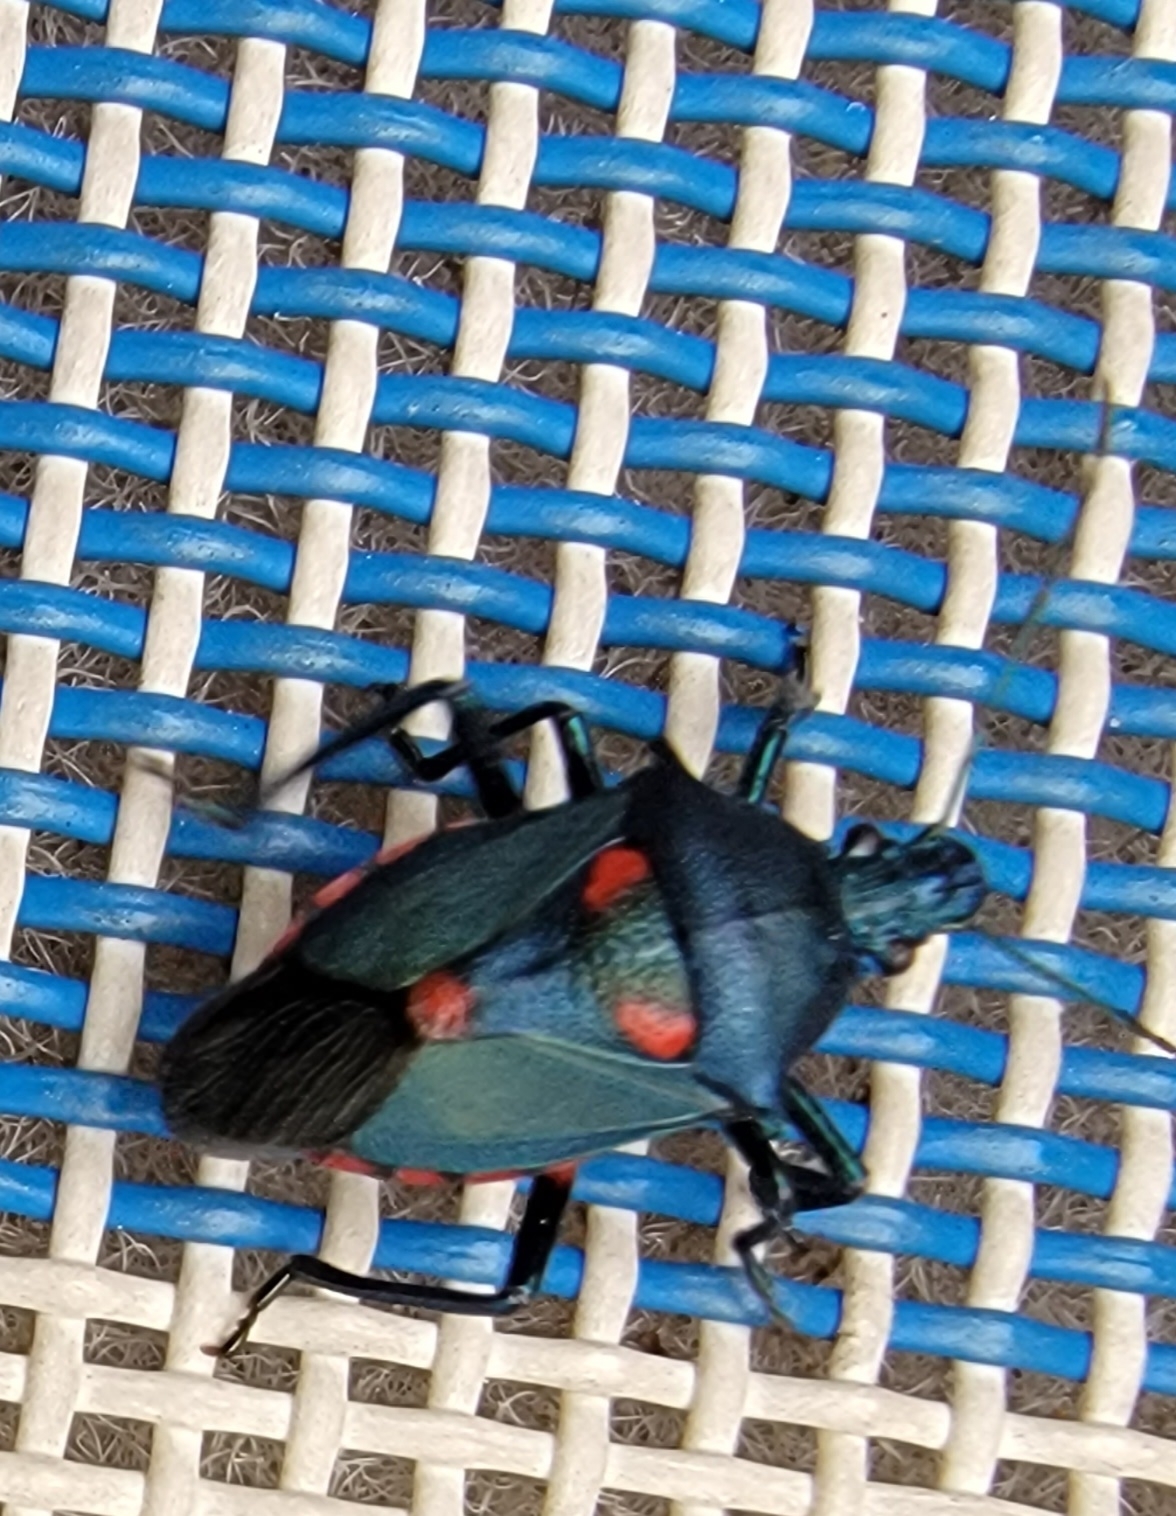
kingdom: Animalia
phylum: Arthropoda
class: Insecta
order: Hemiptera
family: Pentatomidae
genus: Euthyrhynchus
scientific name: Euthyrhynchus floridanus
